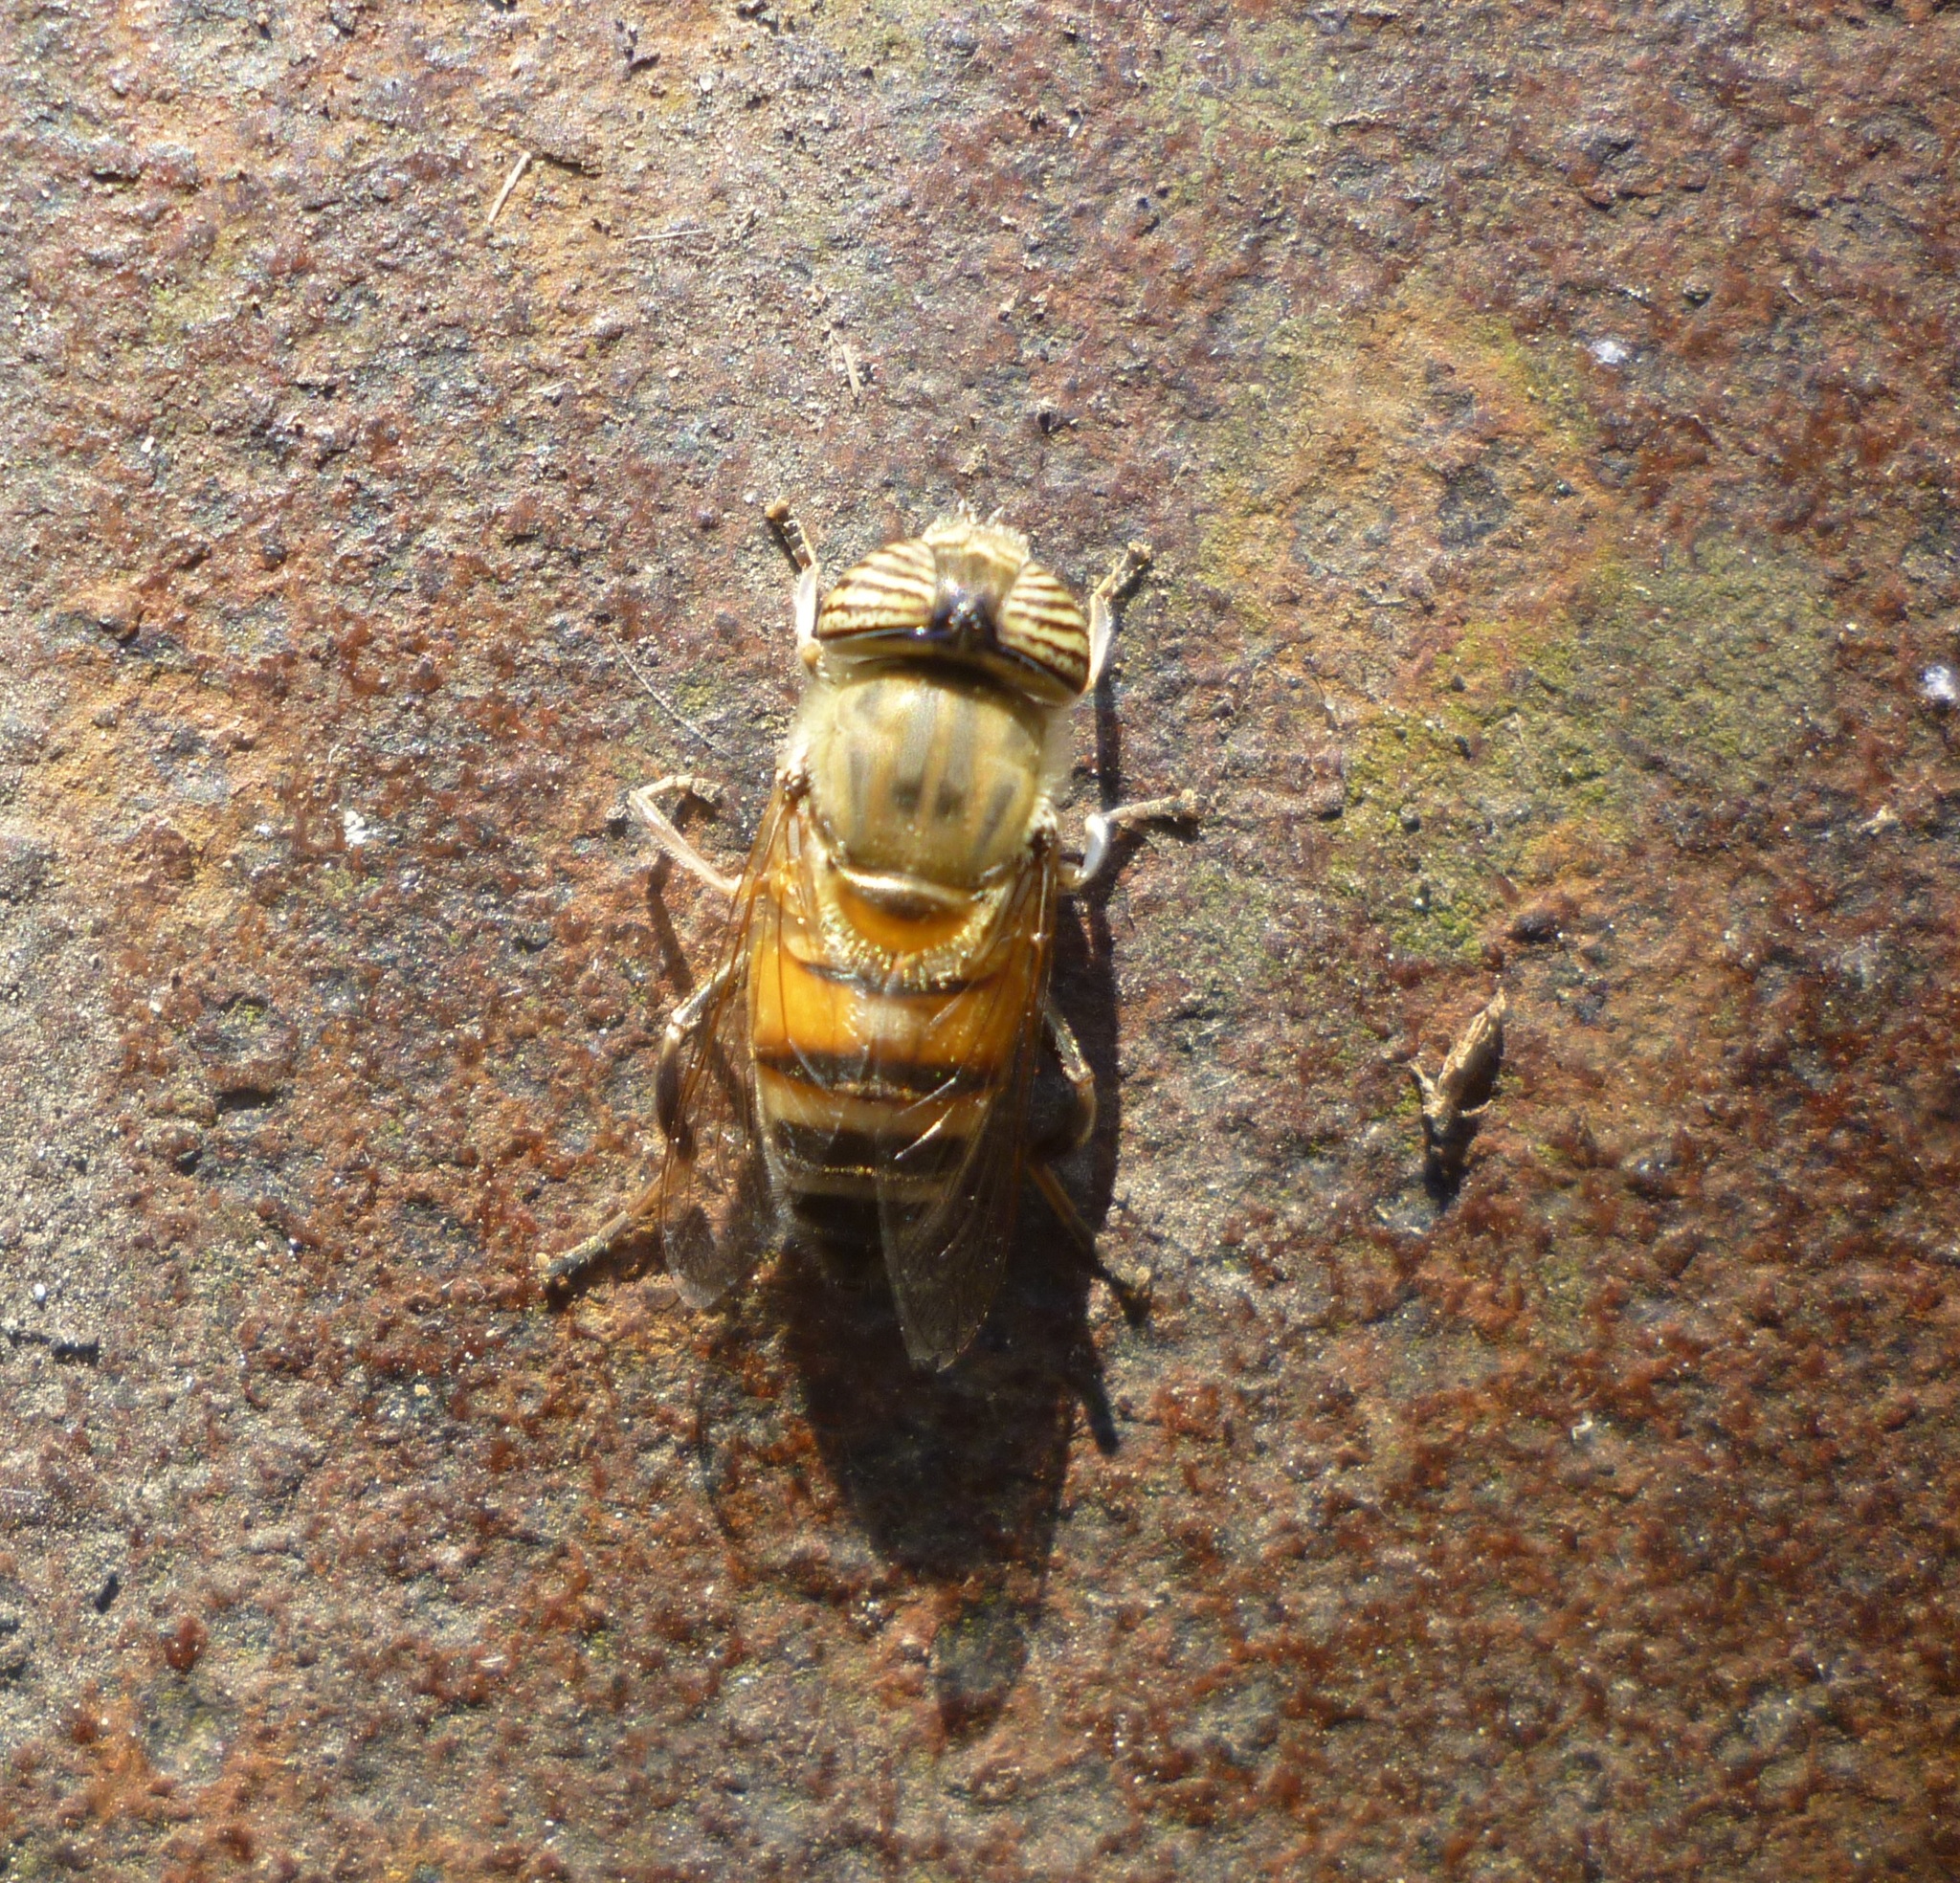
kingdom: Animalia
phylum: Arthropoda
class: Insecta
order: Diptera
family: Syrphidae
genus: Eristalinus
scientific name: Eristalinus taeniops
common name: Syrphid fly
